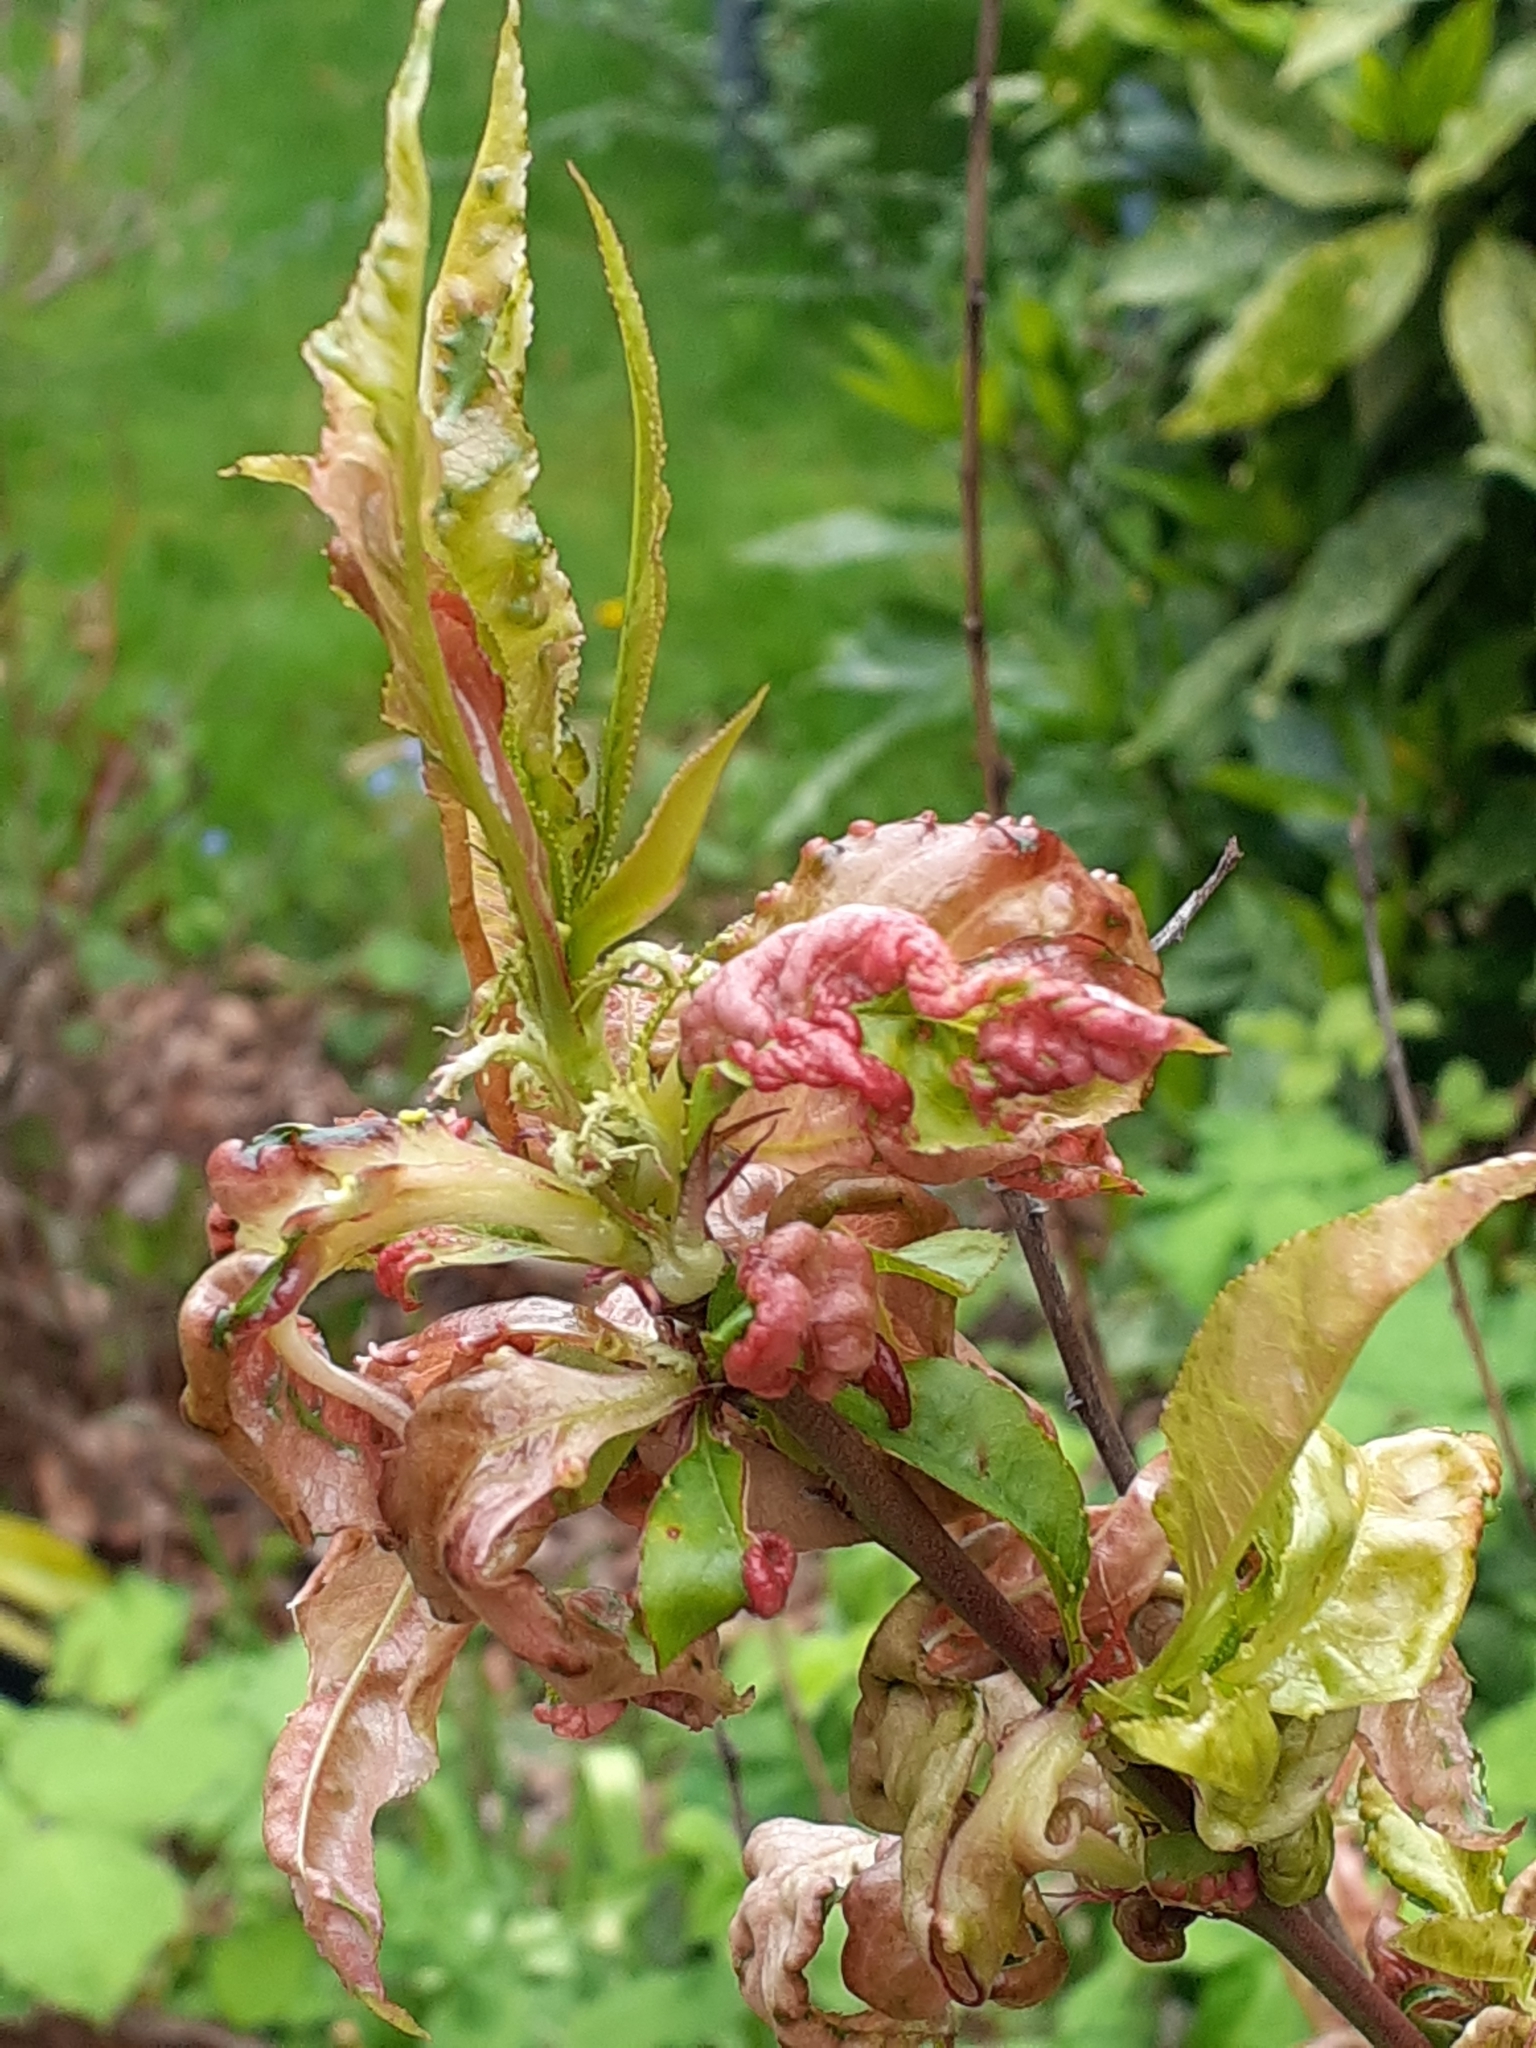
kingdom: Fungi
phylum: Ascomycota
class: Taphrinomycetes
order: Taphrinales
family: Taphrinaceae
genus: Taphrina
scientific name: Taphrina deformans
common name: Peach leaf curl
